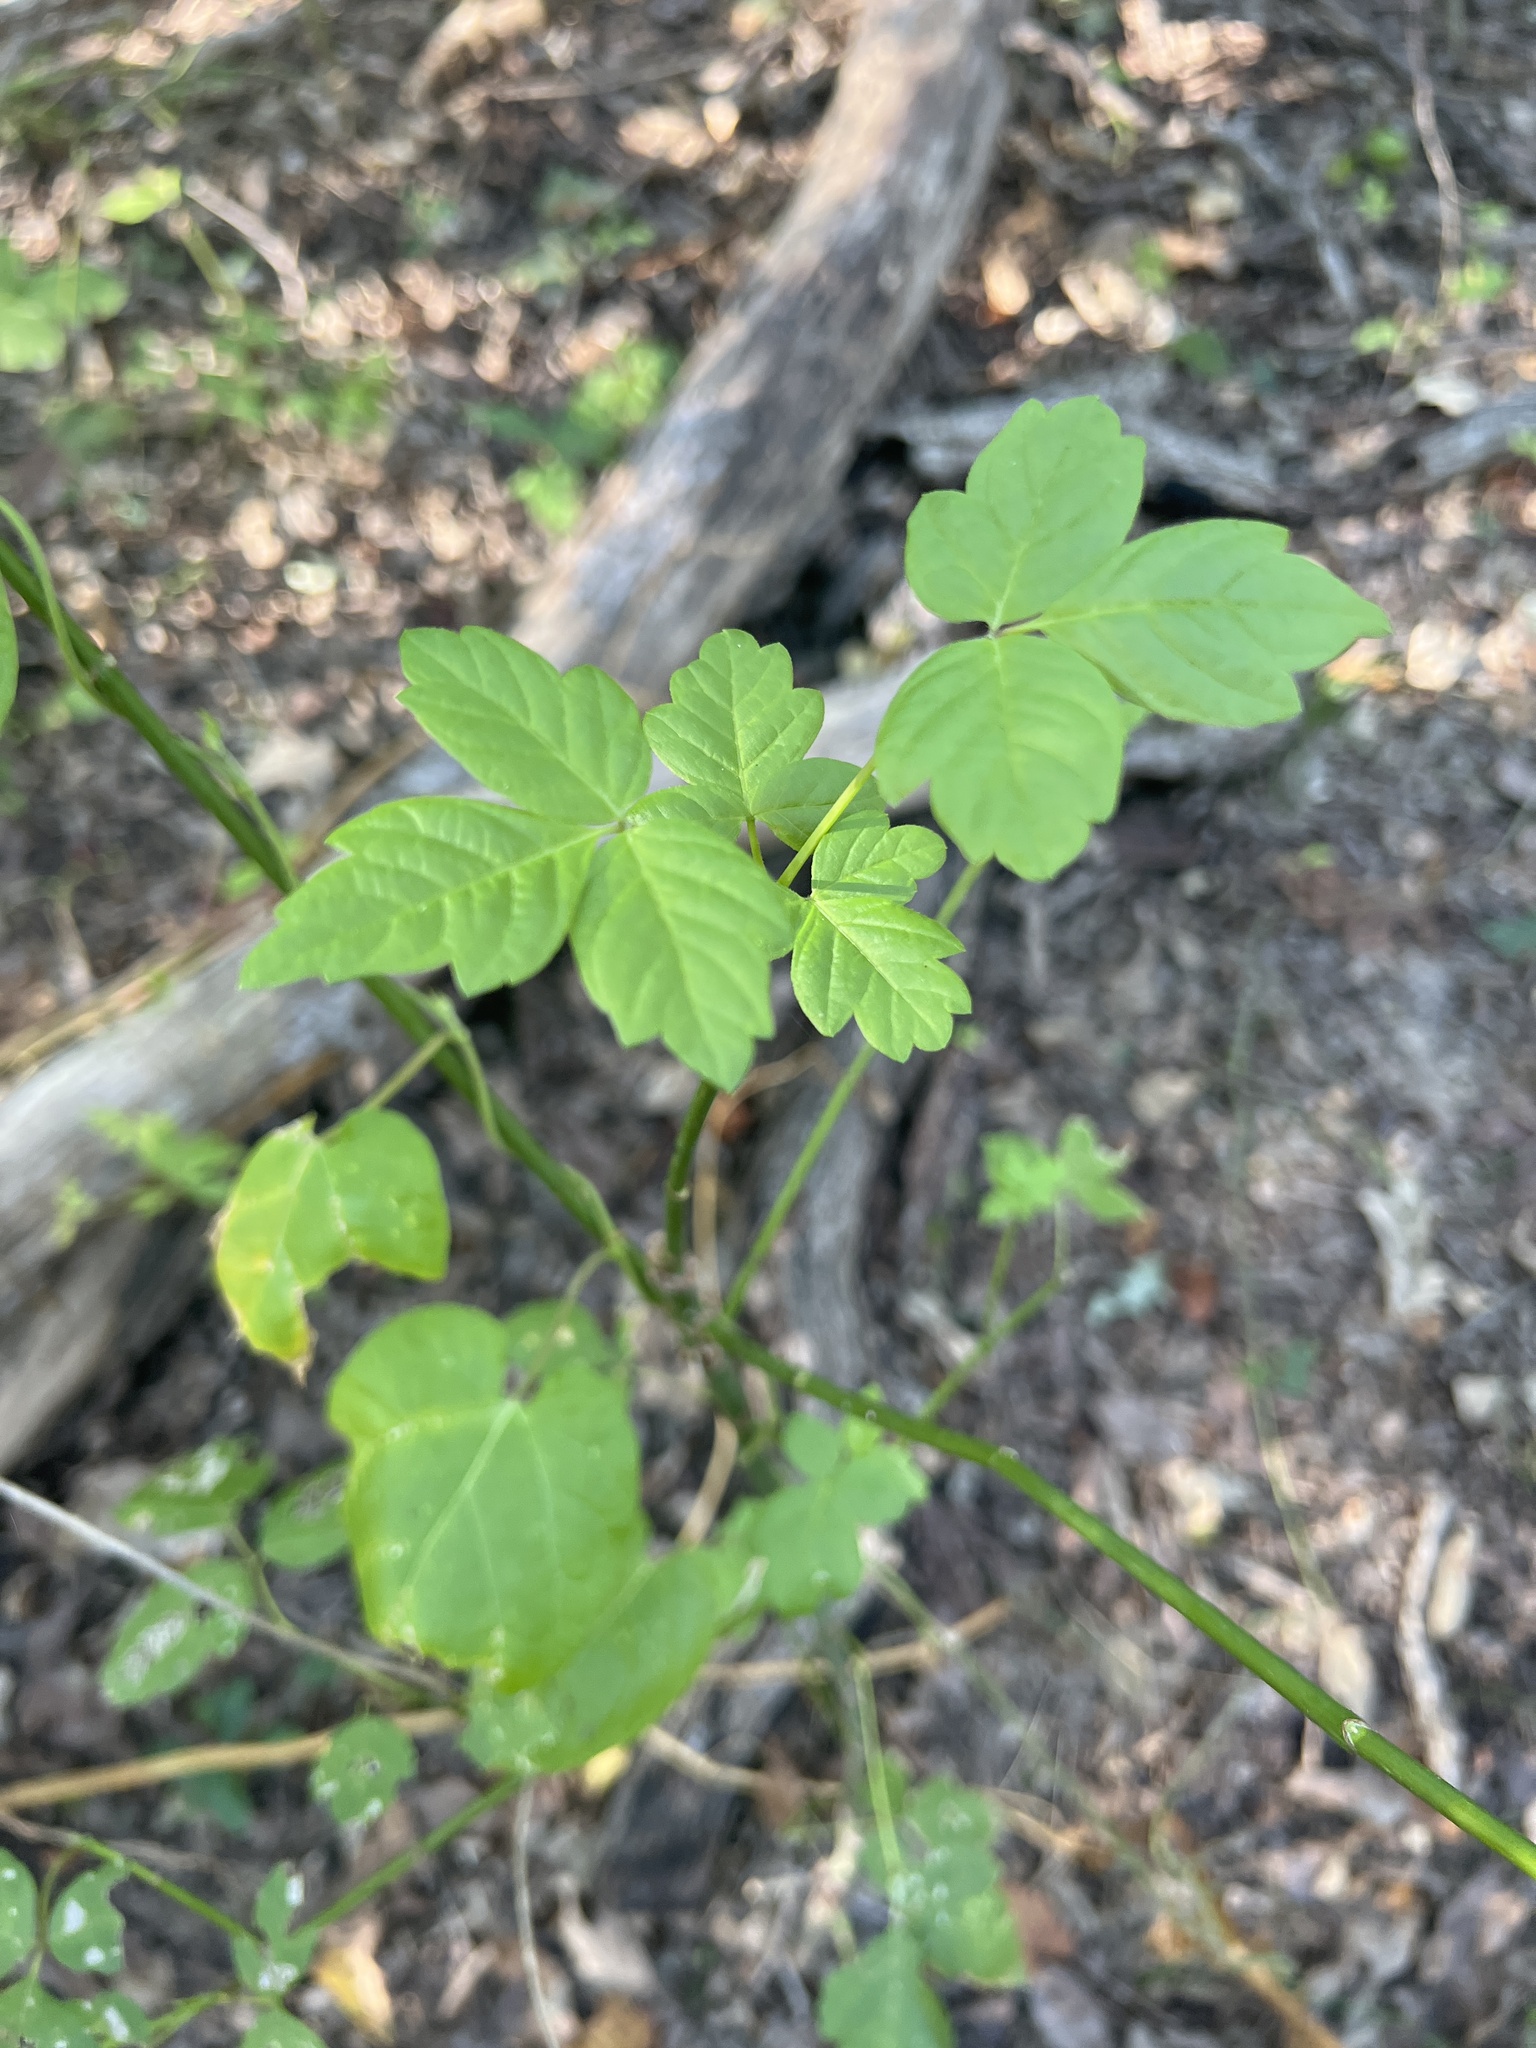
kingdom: Plantae
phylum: Tracheophyta
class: Magnoliopsida
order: Sapindales
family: Sapindaceae
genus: Acer
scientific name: Acer negundo
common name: Ashleaf maple
